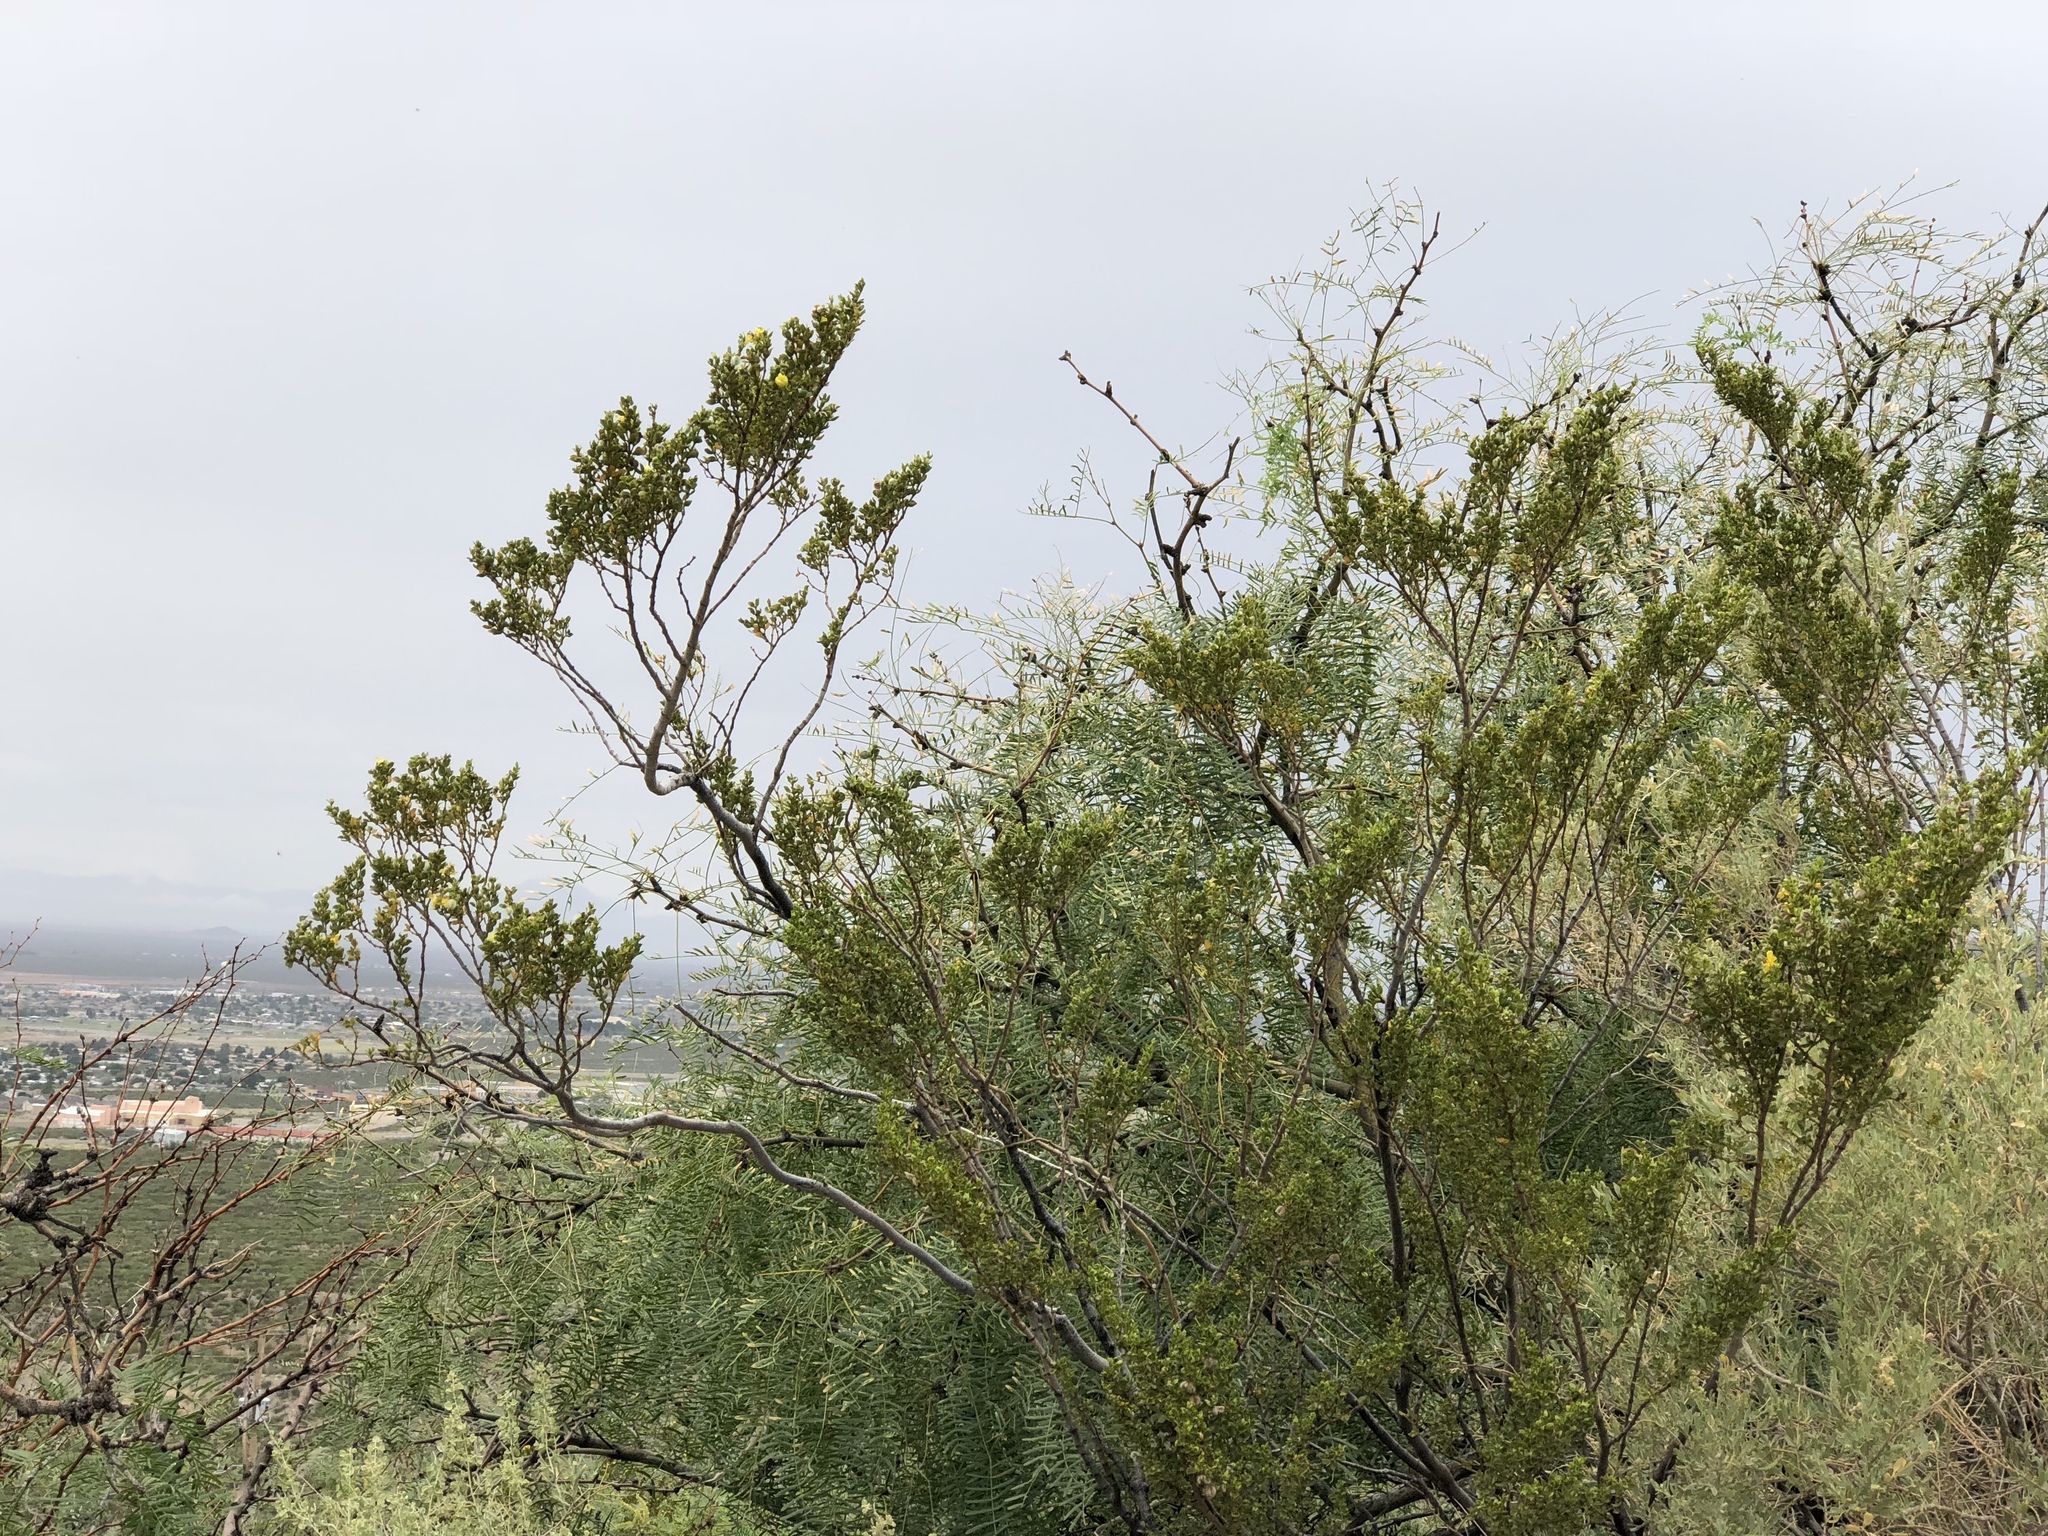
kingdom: Plantae
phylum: Tracheophyta
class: Magnoliopsida
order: Zygophyllales
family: Zygophyllaceae
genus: Larrea
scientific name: Larrea tridentata
